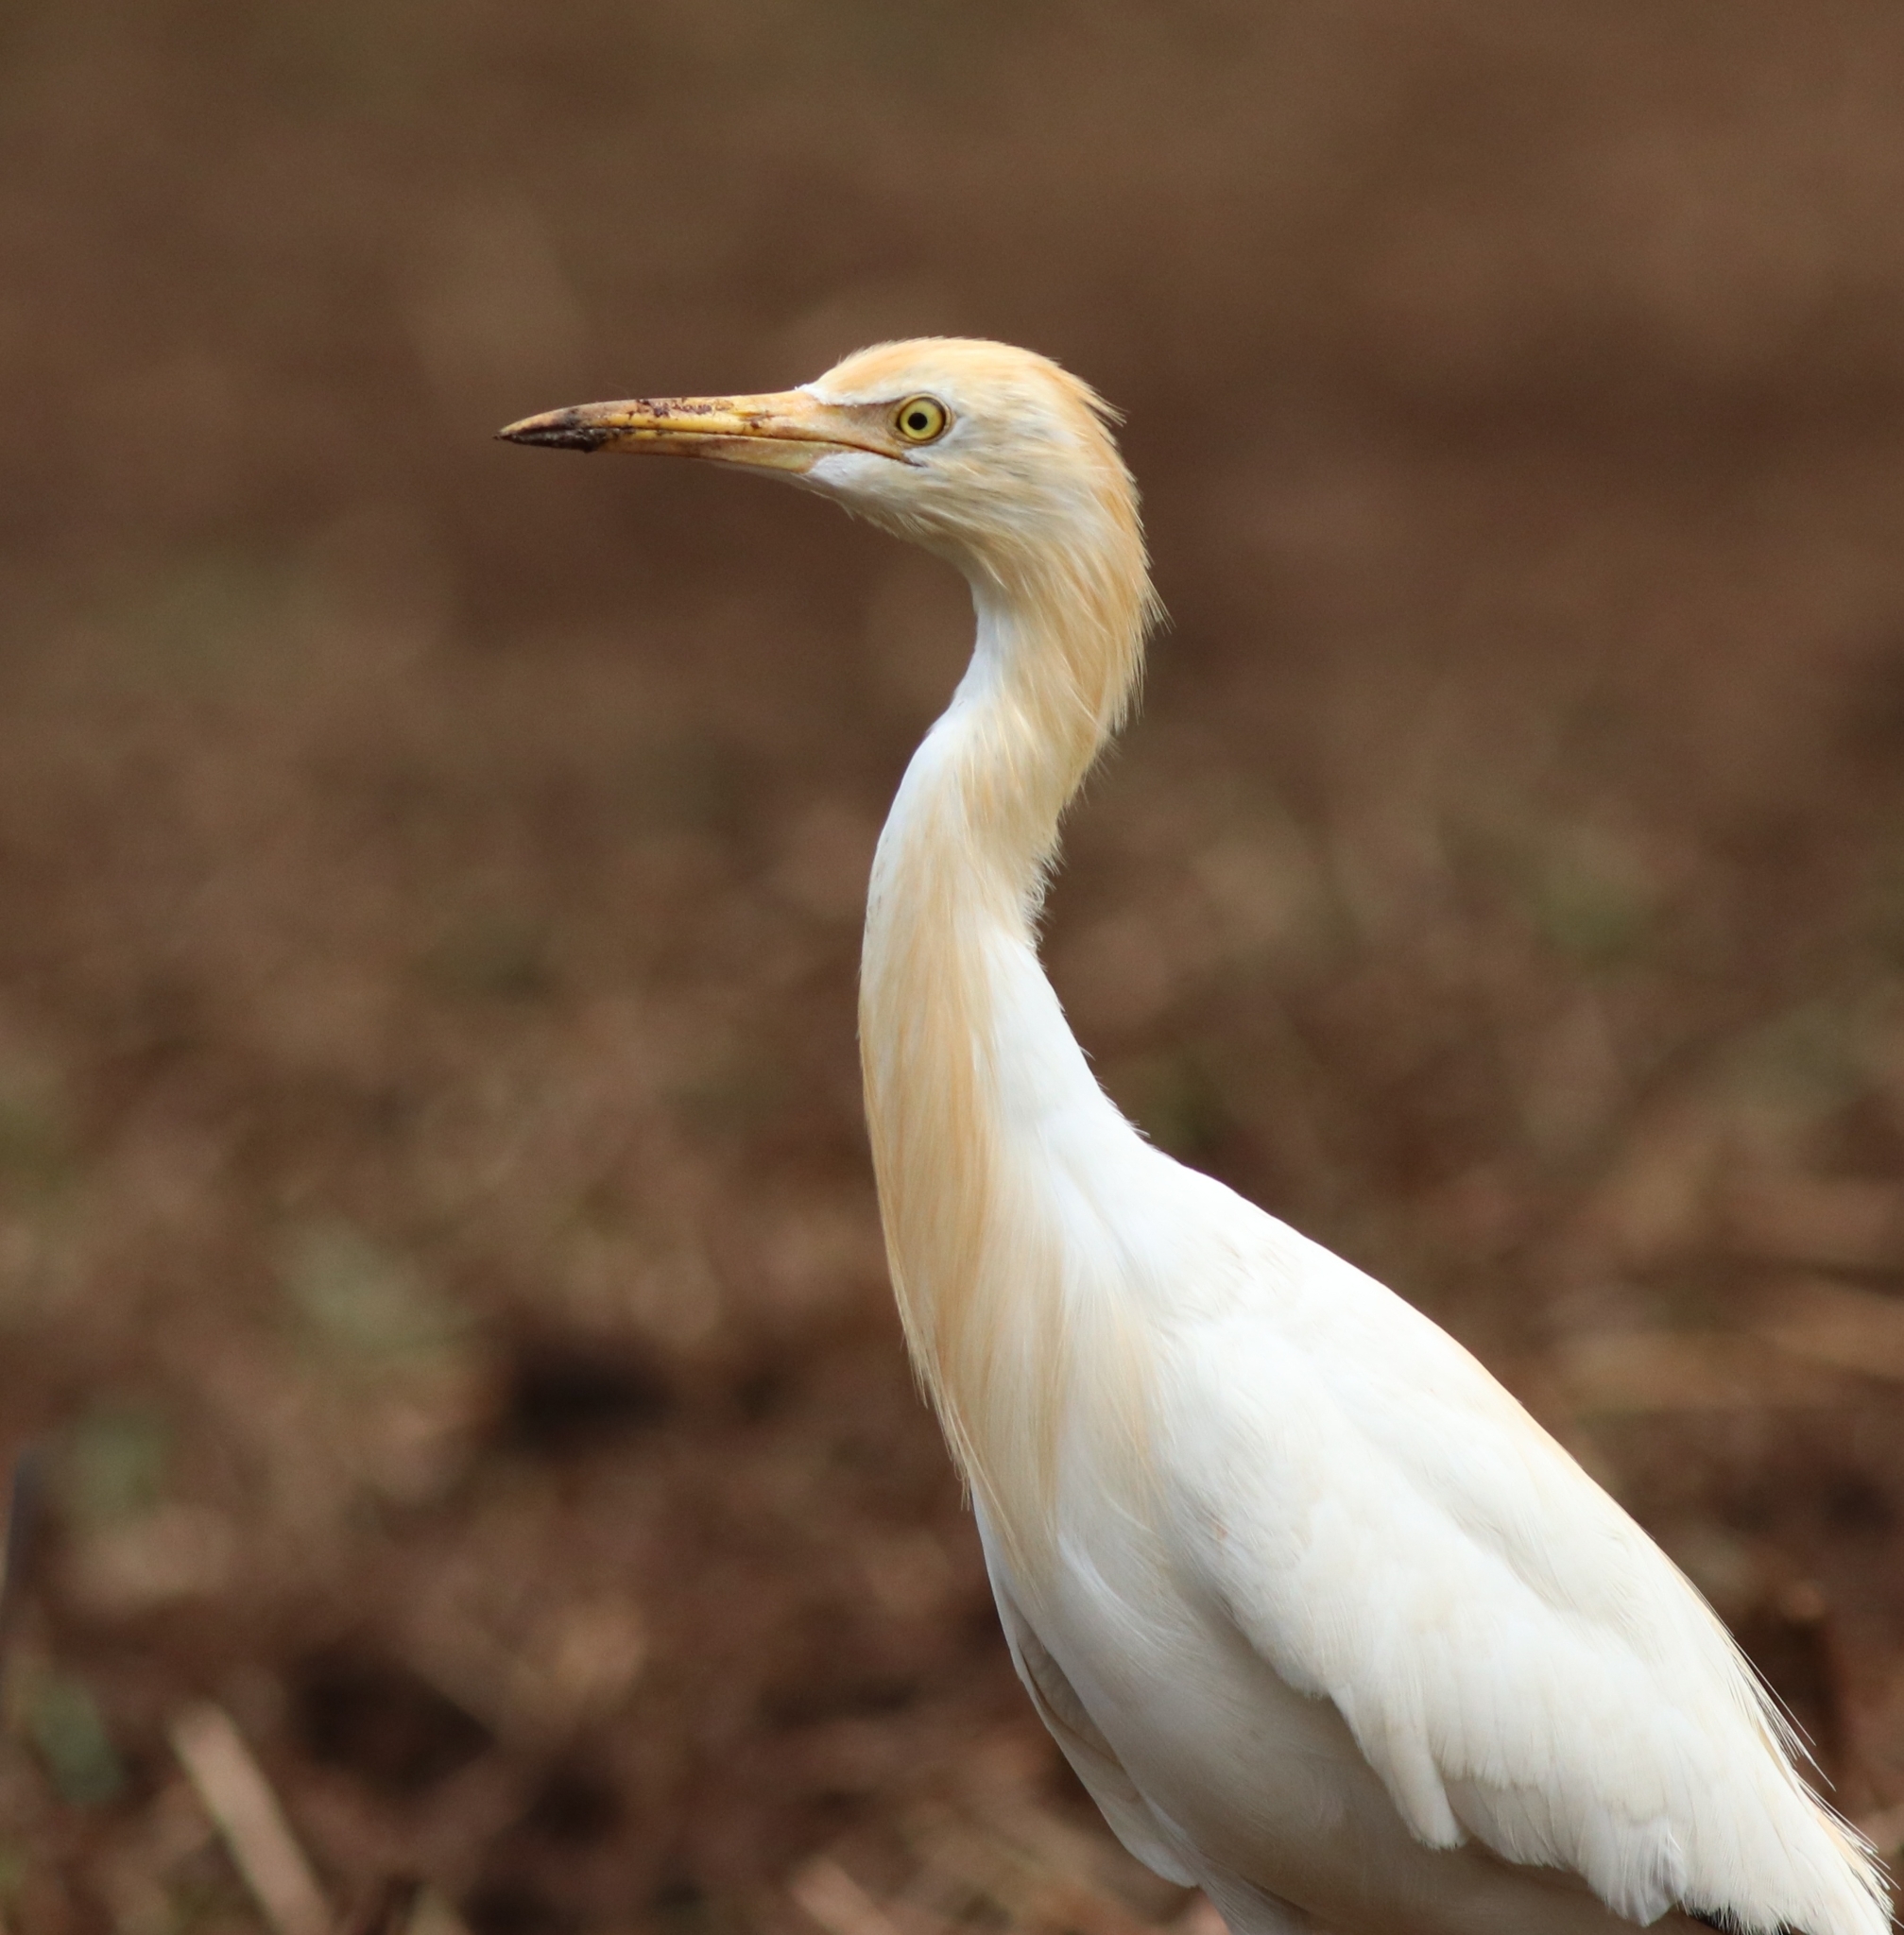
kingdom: Animalia
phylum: Chordata
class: Aves
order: Pelecaniformes
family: Ardeidae
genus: Bubulcus
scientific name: Bubulcus coromandus
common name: Eastern cattle egret
